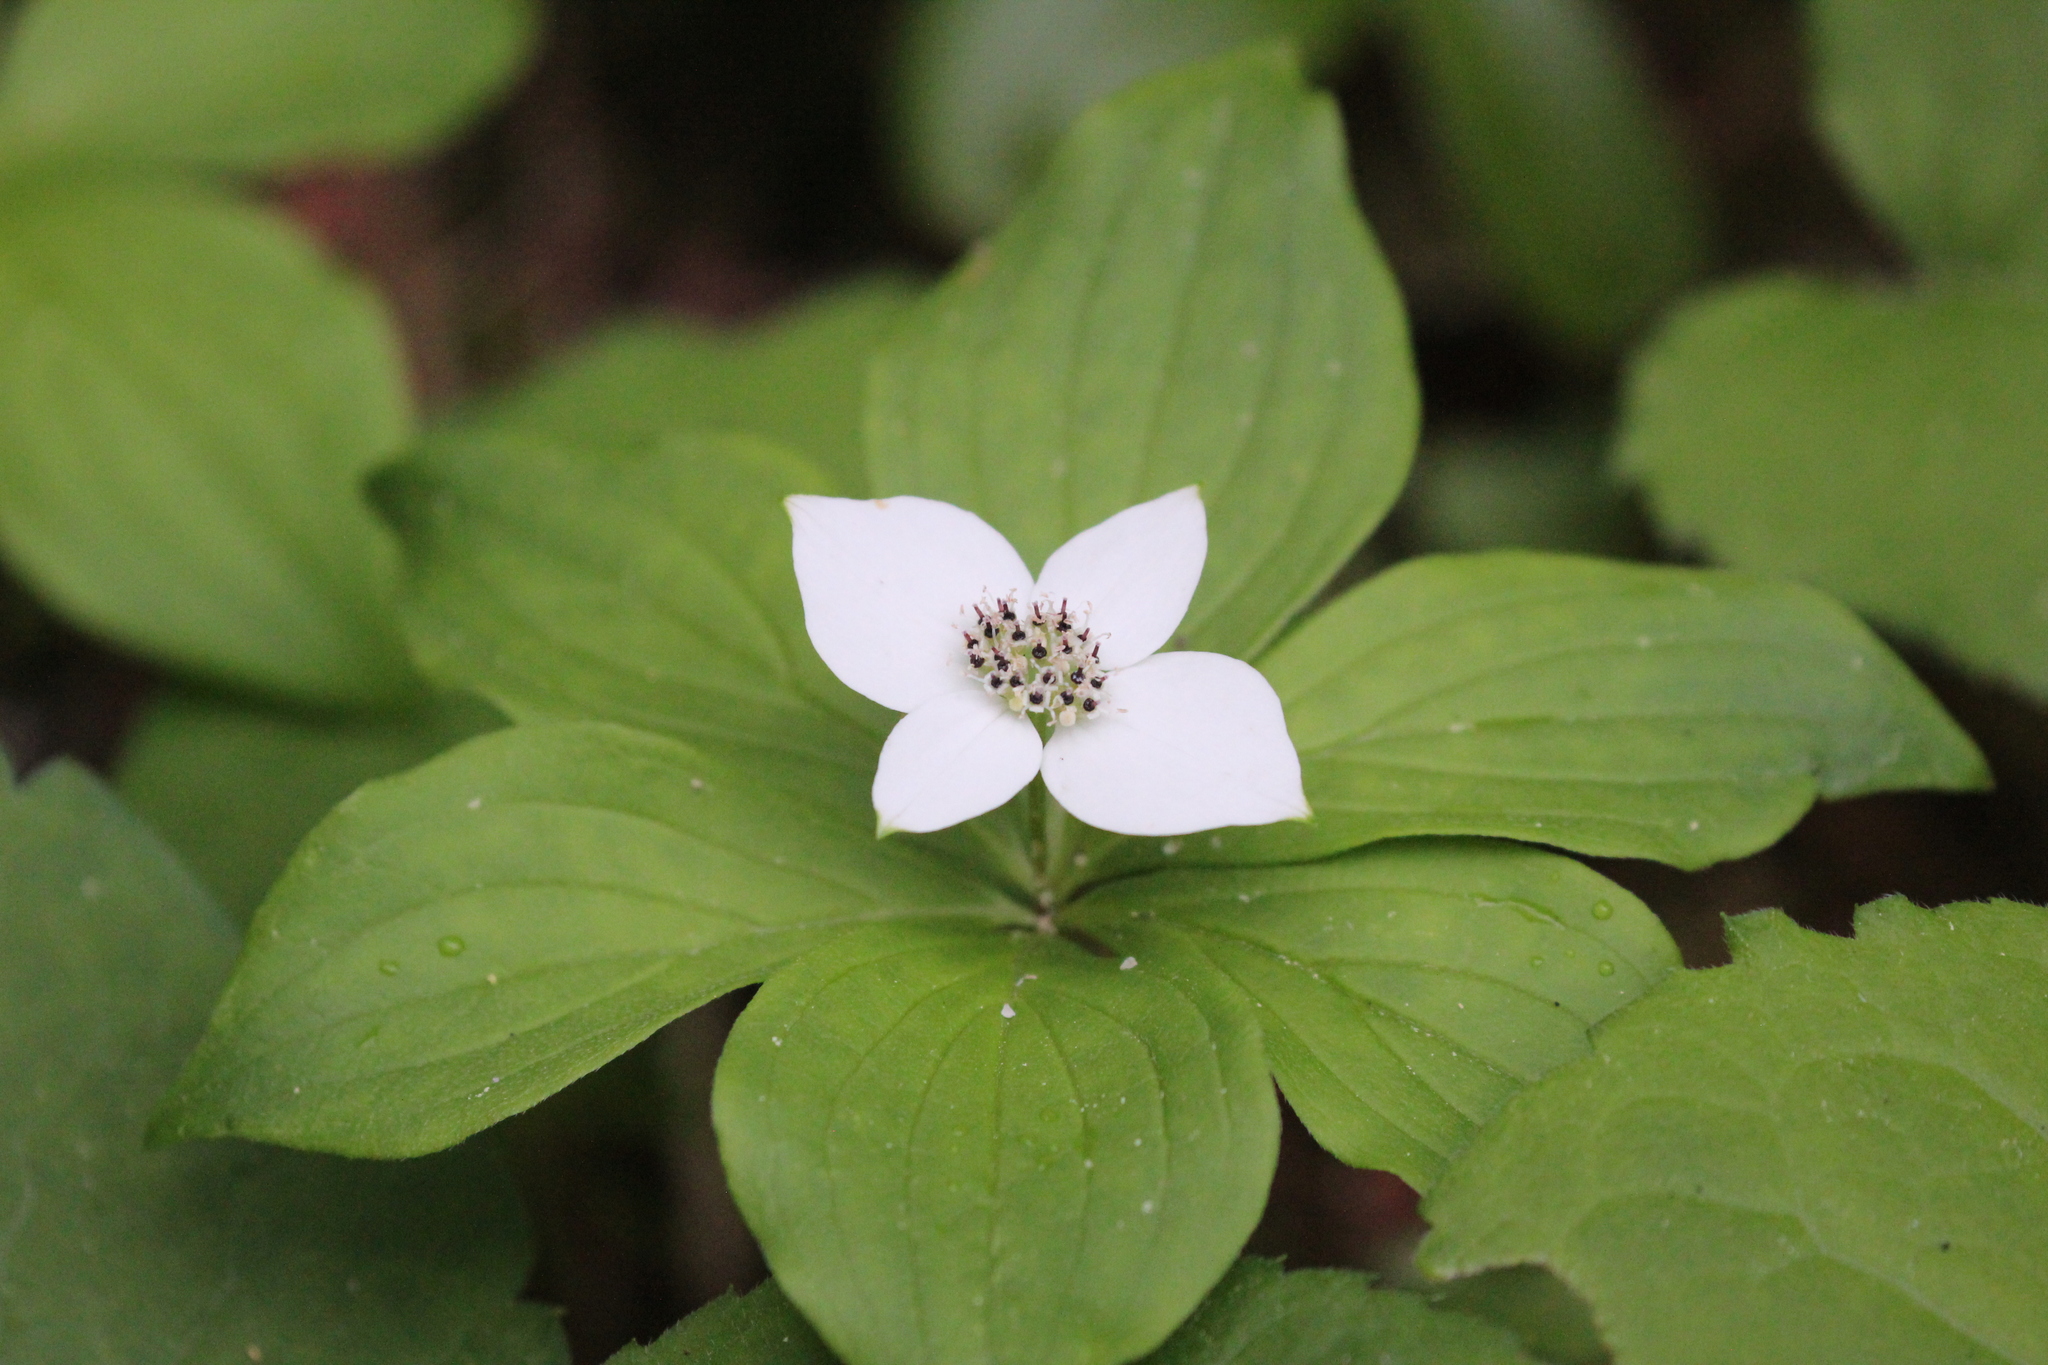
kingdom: Plantae
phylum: Tracheophyta
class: Magnoliopsida
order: Cornales
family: Cornaceae
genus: Cornus
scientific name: Cornus canadensis
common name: Creeping dogwood
